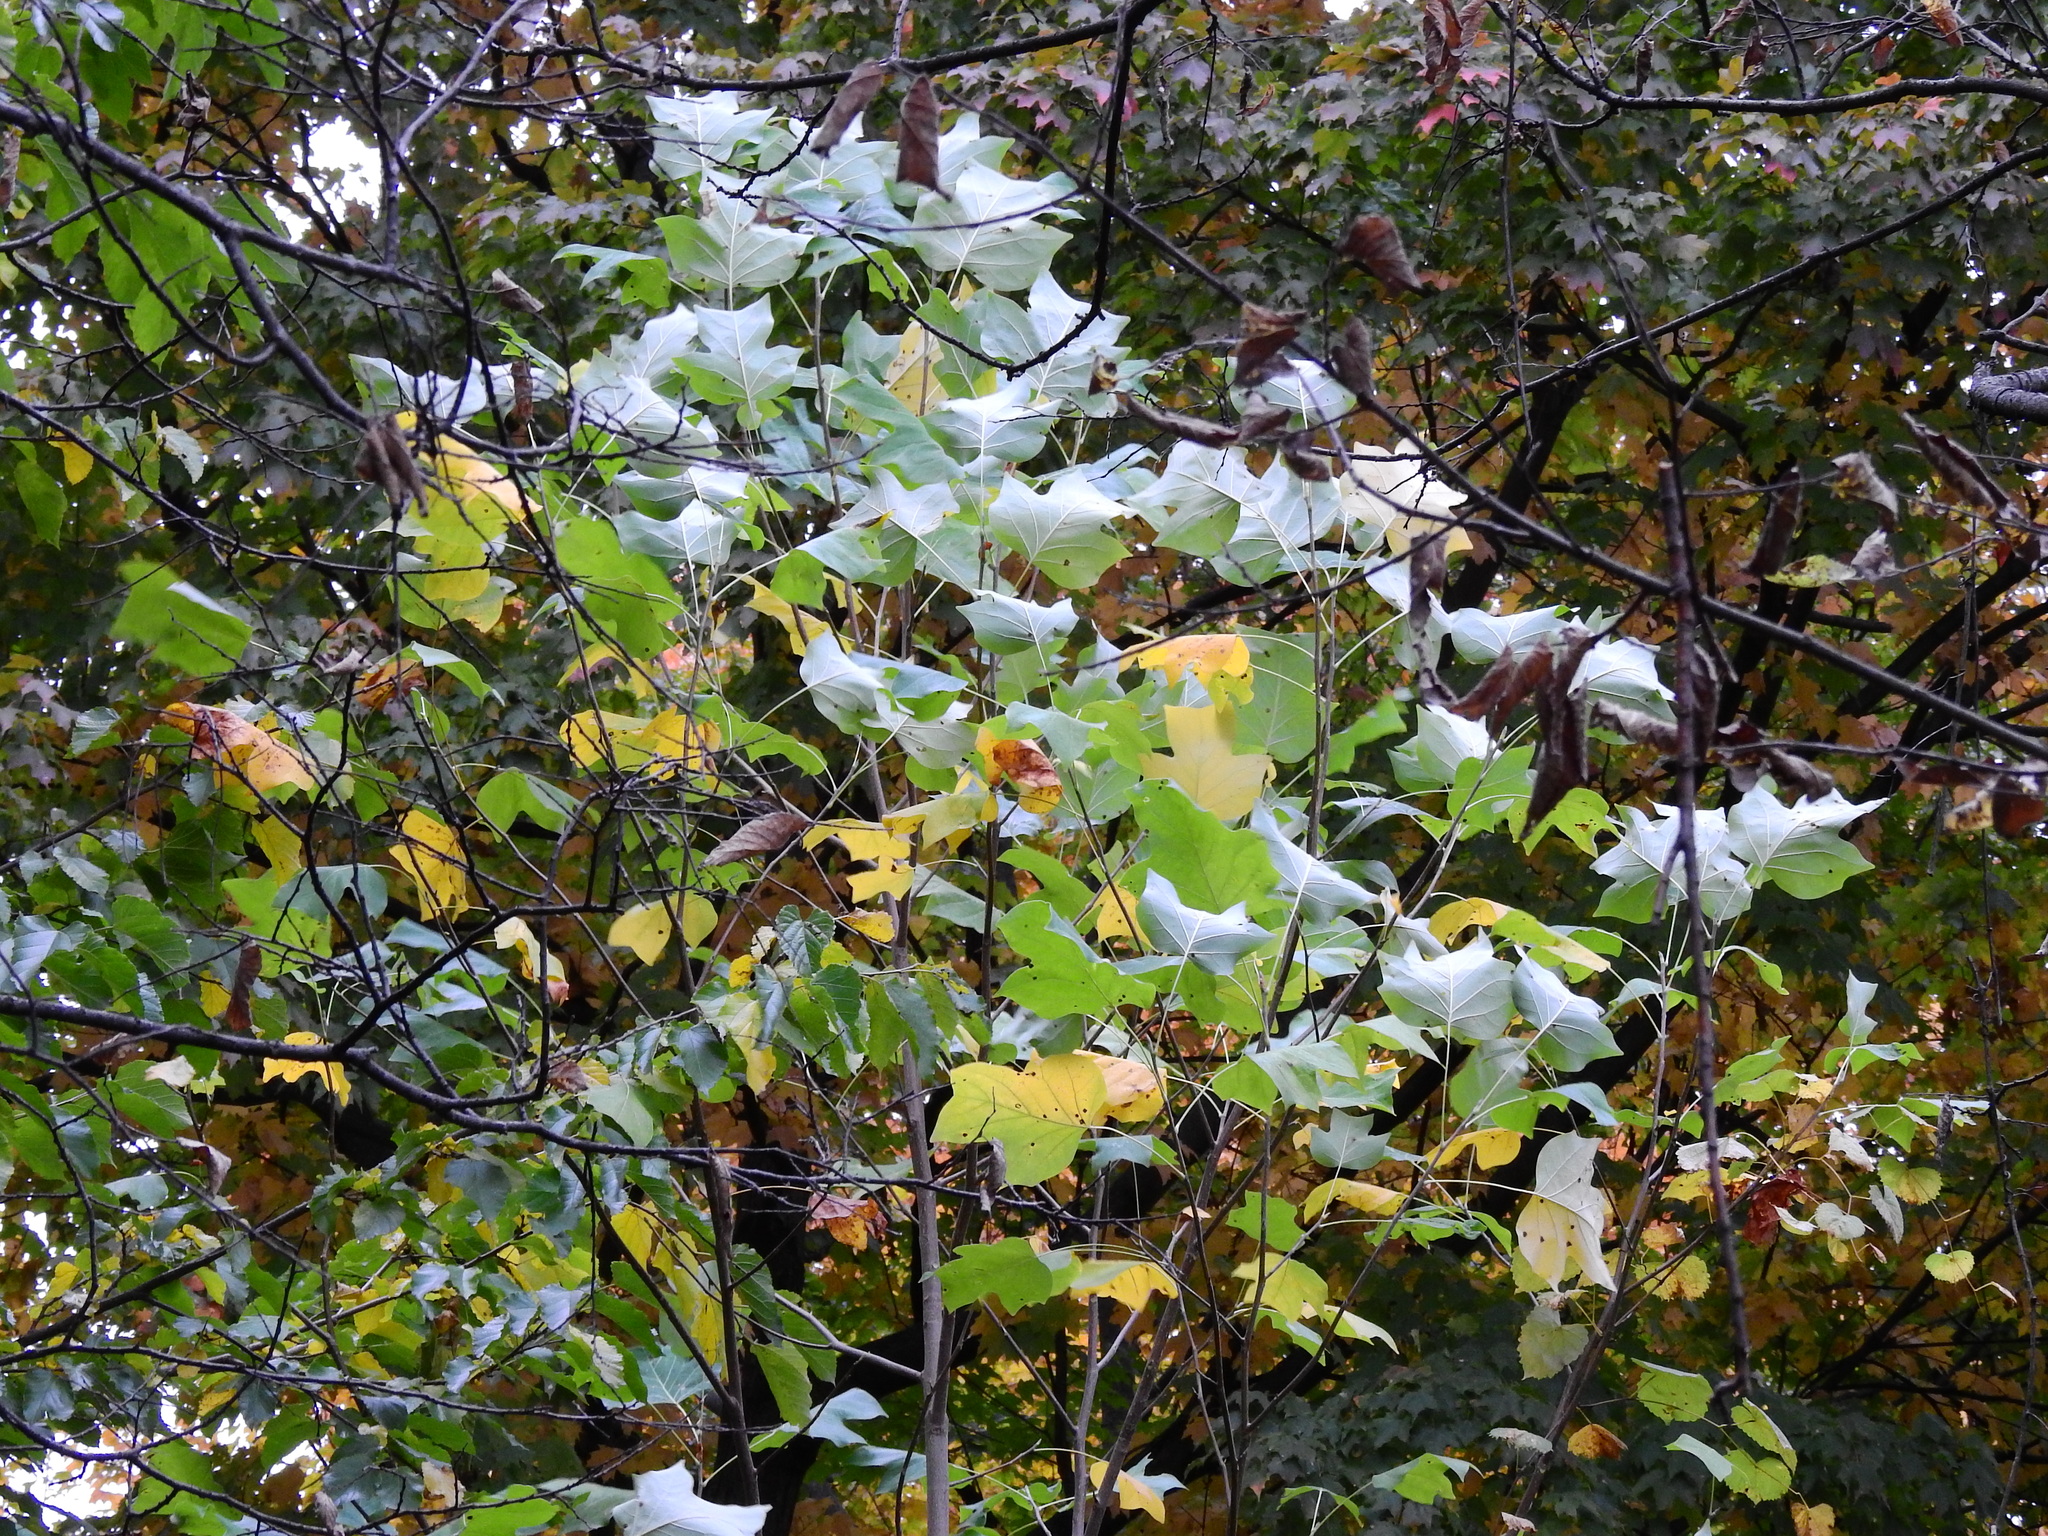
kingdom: Plantae
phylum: Tracheophyta
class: Magnoliopsida
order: Magnoliales
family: Magnoliaceae
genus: Liriodendron
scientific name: Liriodendron tulipifera
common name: Tulip tree
